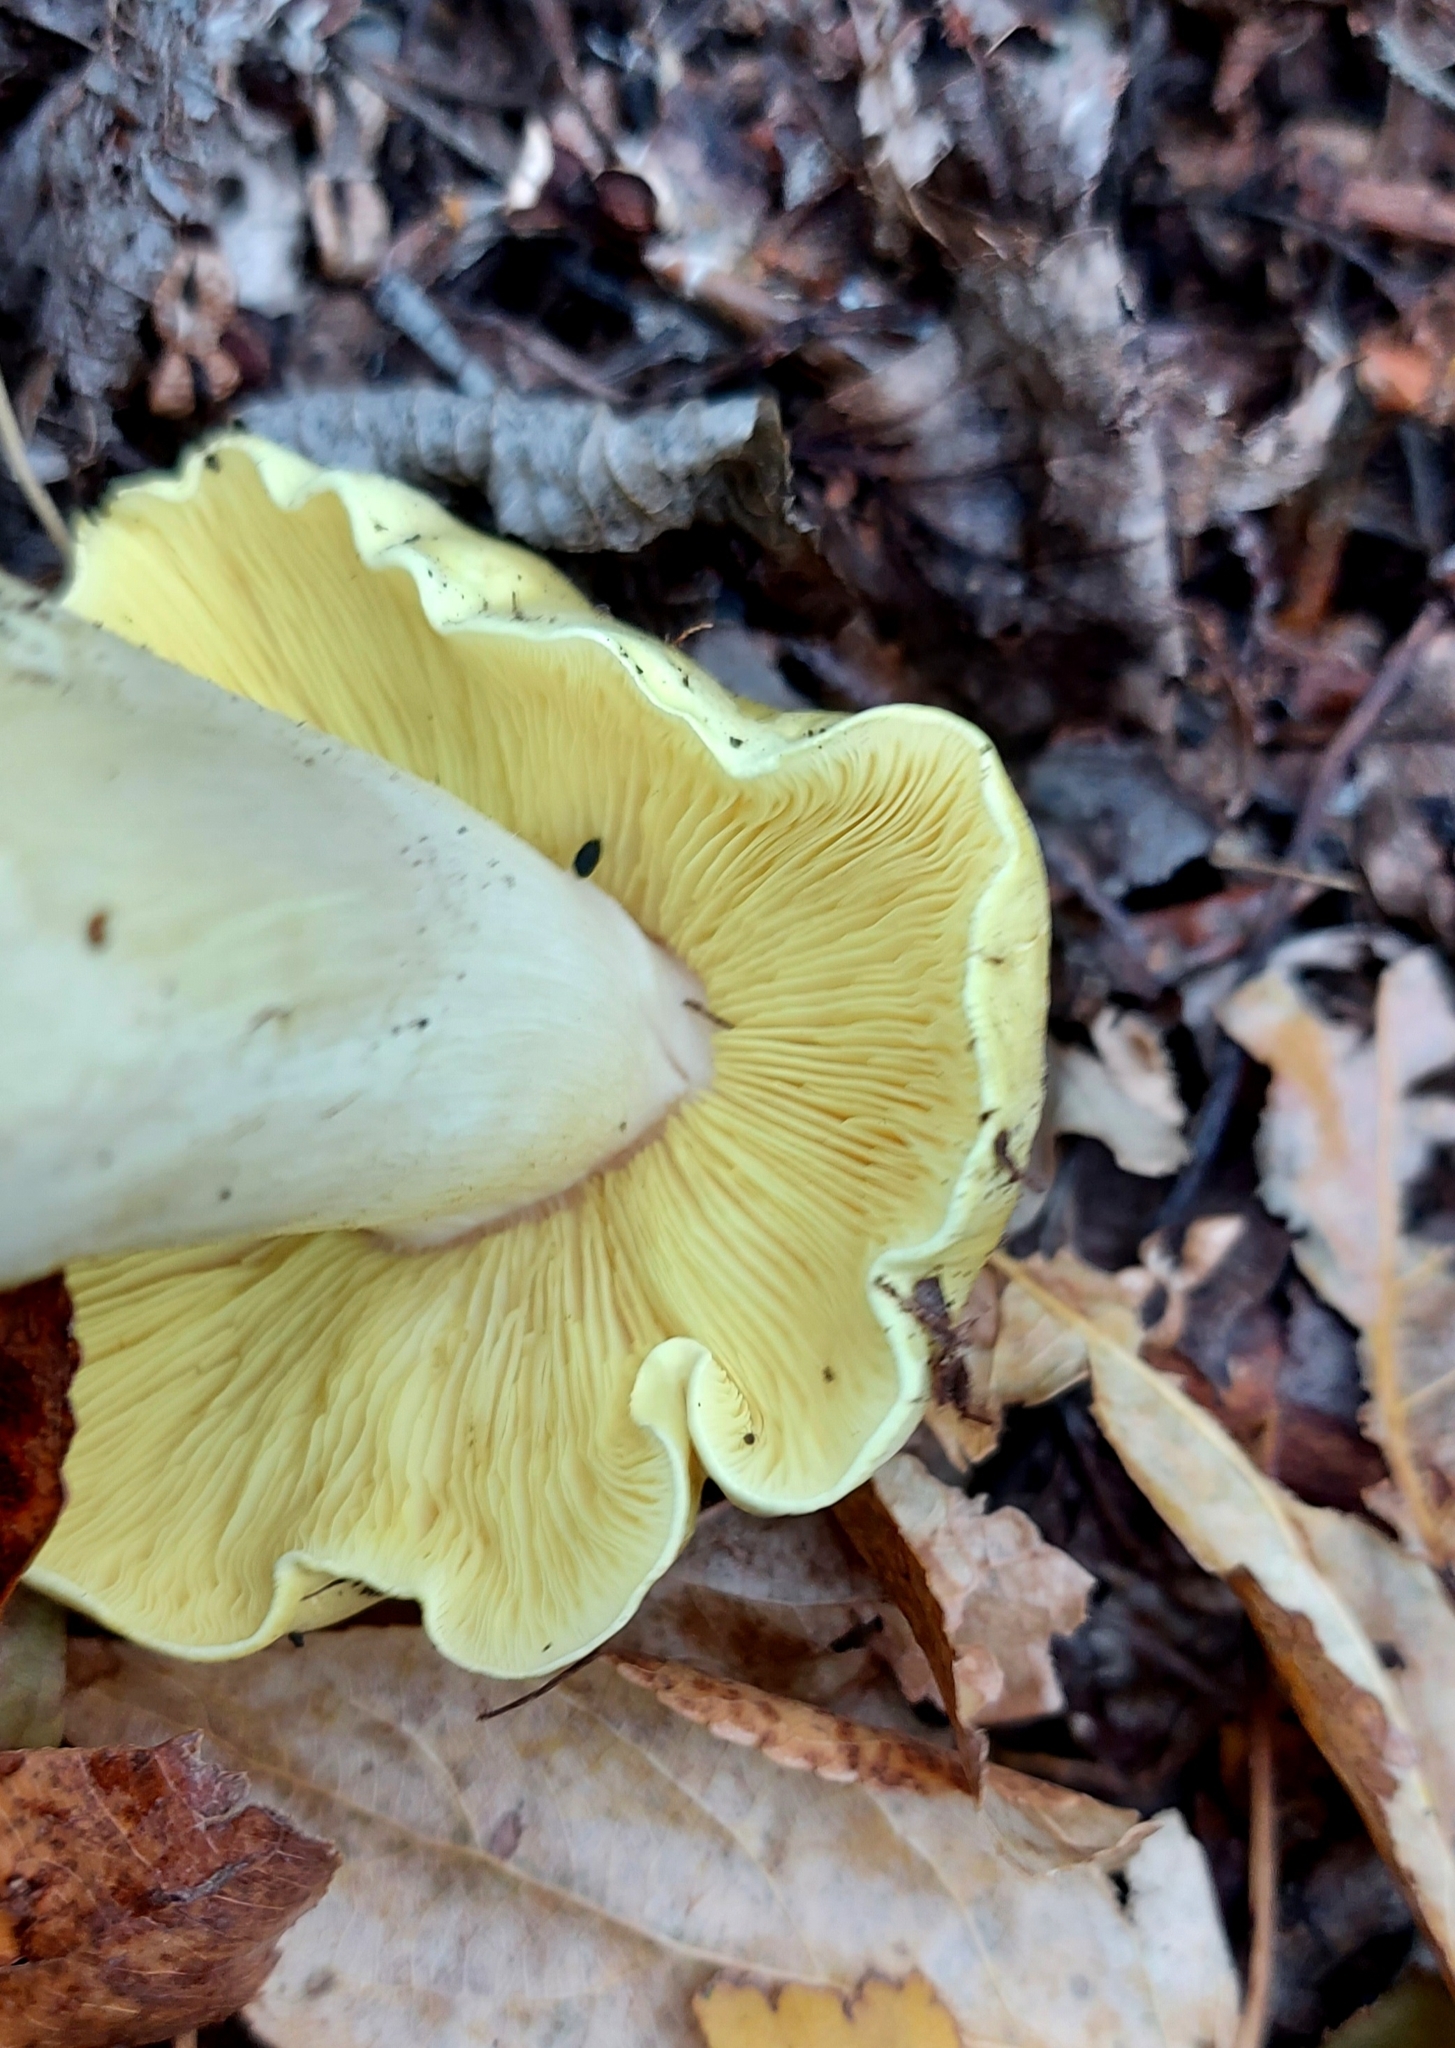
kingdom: Fungi
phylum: Basidiomycota
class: Agaricomycetes
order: Agaricales
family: Tricholomataceae
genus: Tricholoma
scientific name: Tricholoma equestre
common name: Yellow knight
